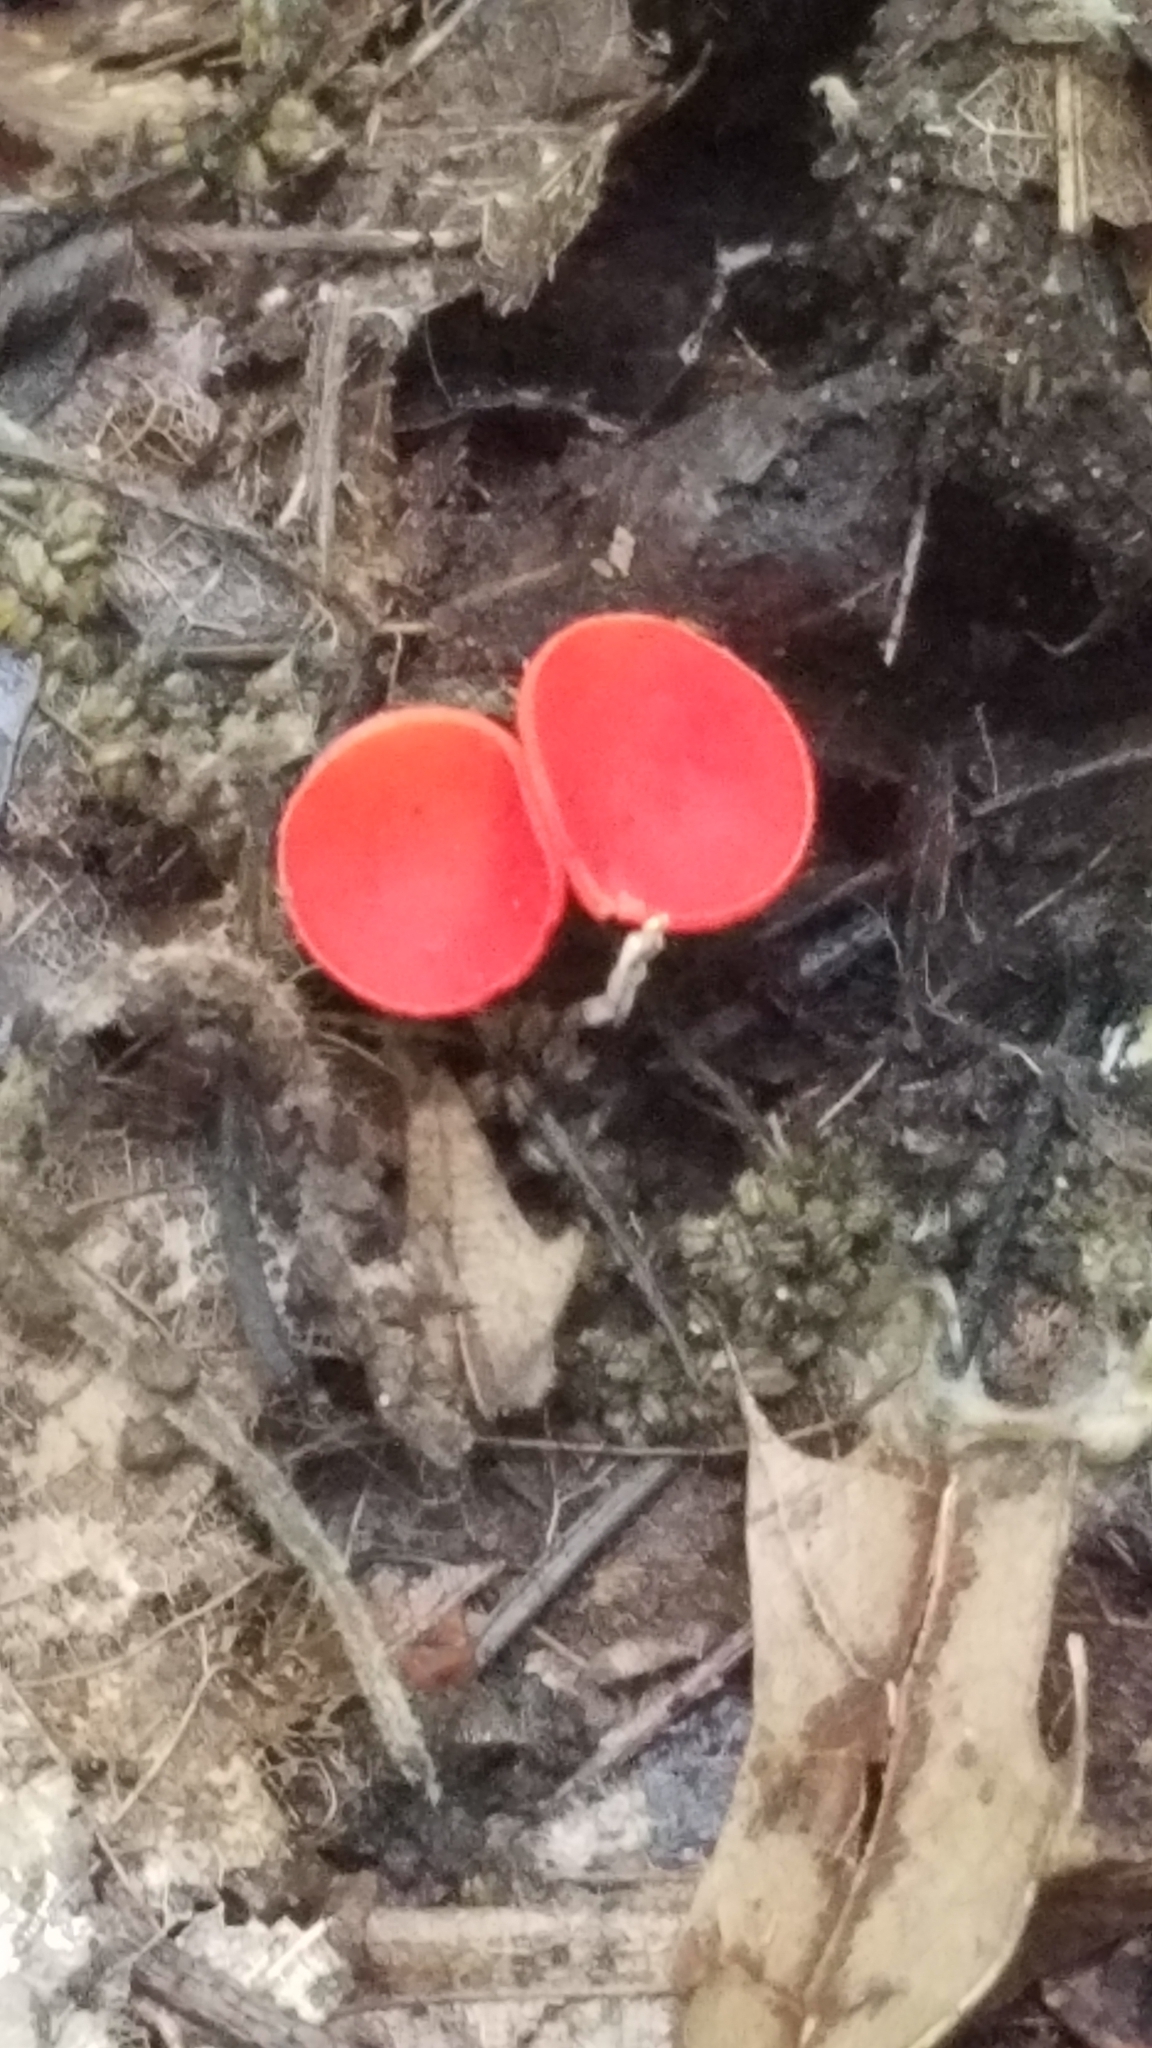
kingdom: Fungi
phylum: Ascomycota
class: Pezizomycetes
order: Pezizales
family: Sarcoscyphaceae
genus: Sarcoscypha
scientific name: Sarcoscypha occidentalis
